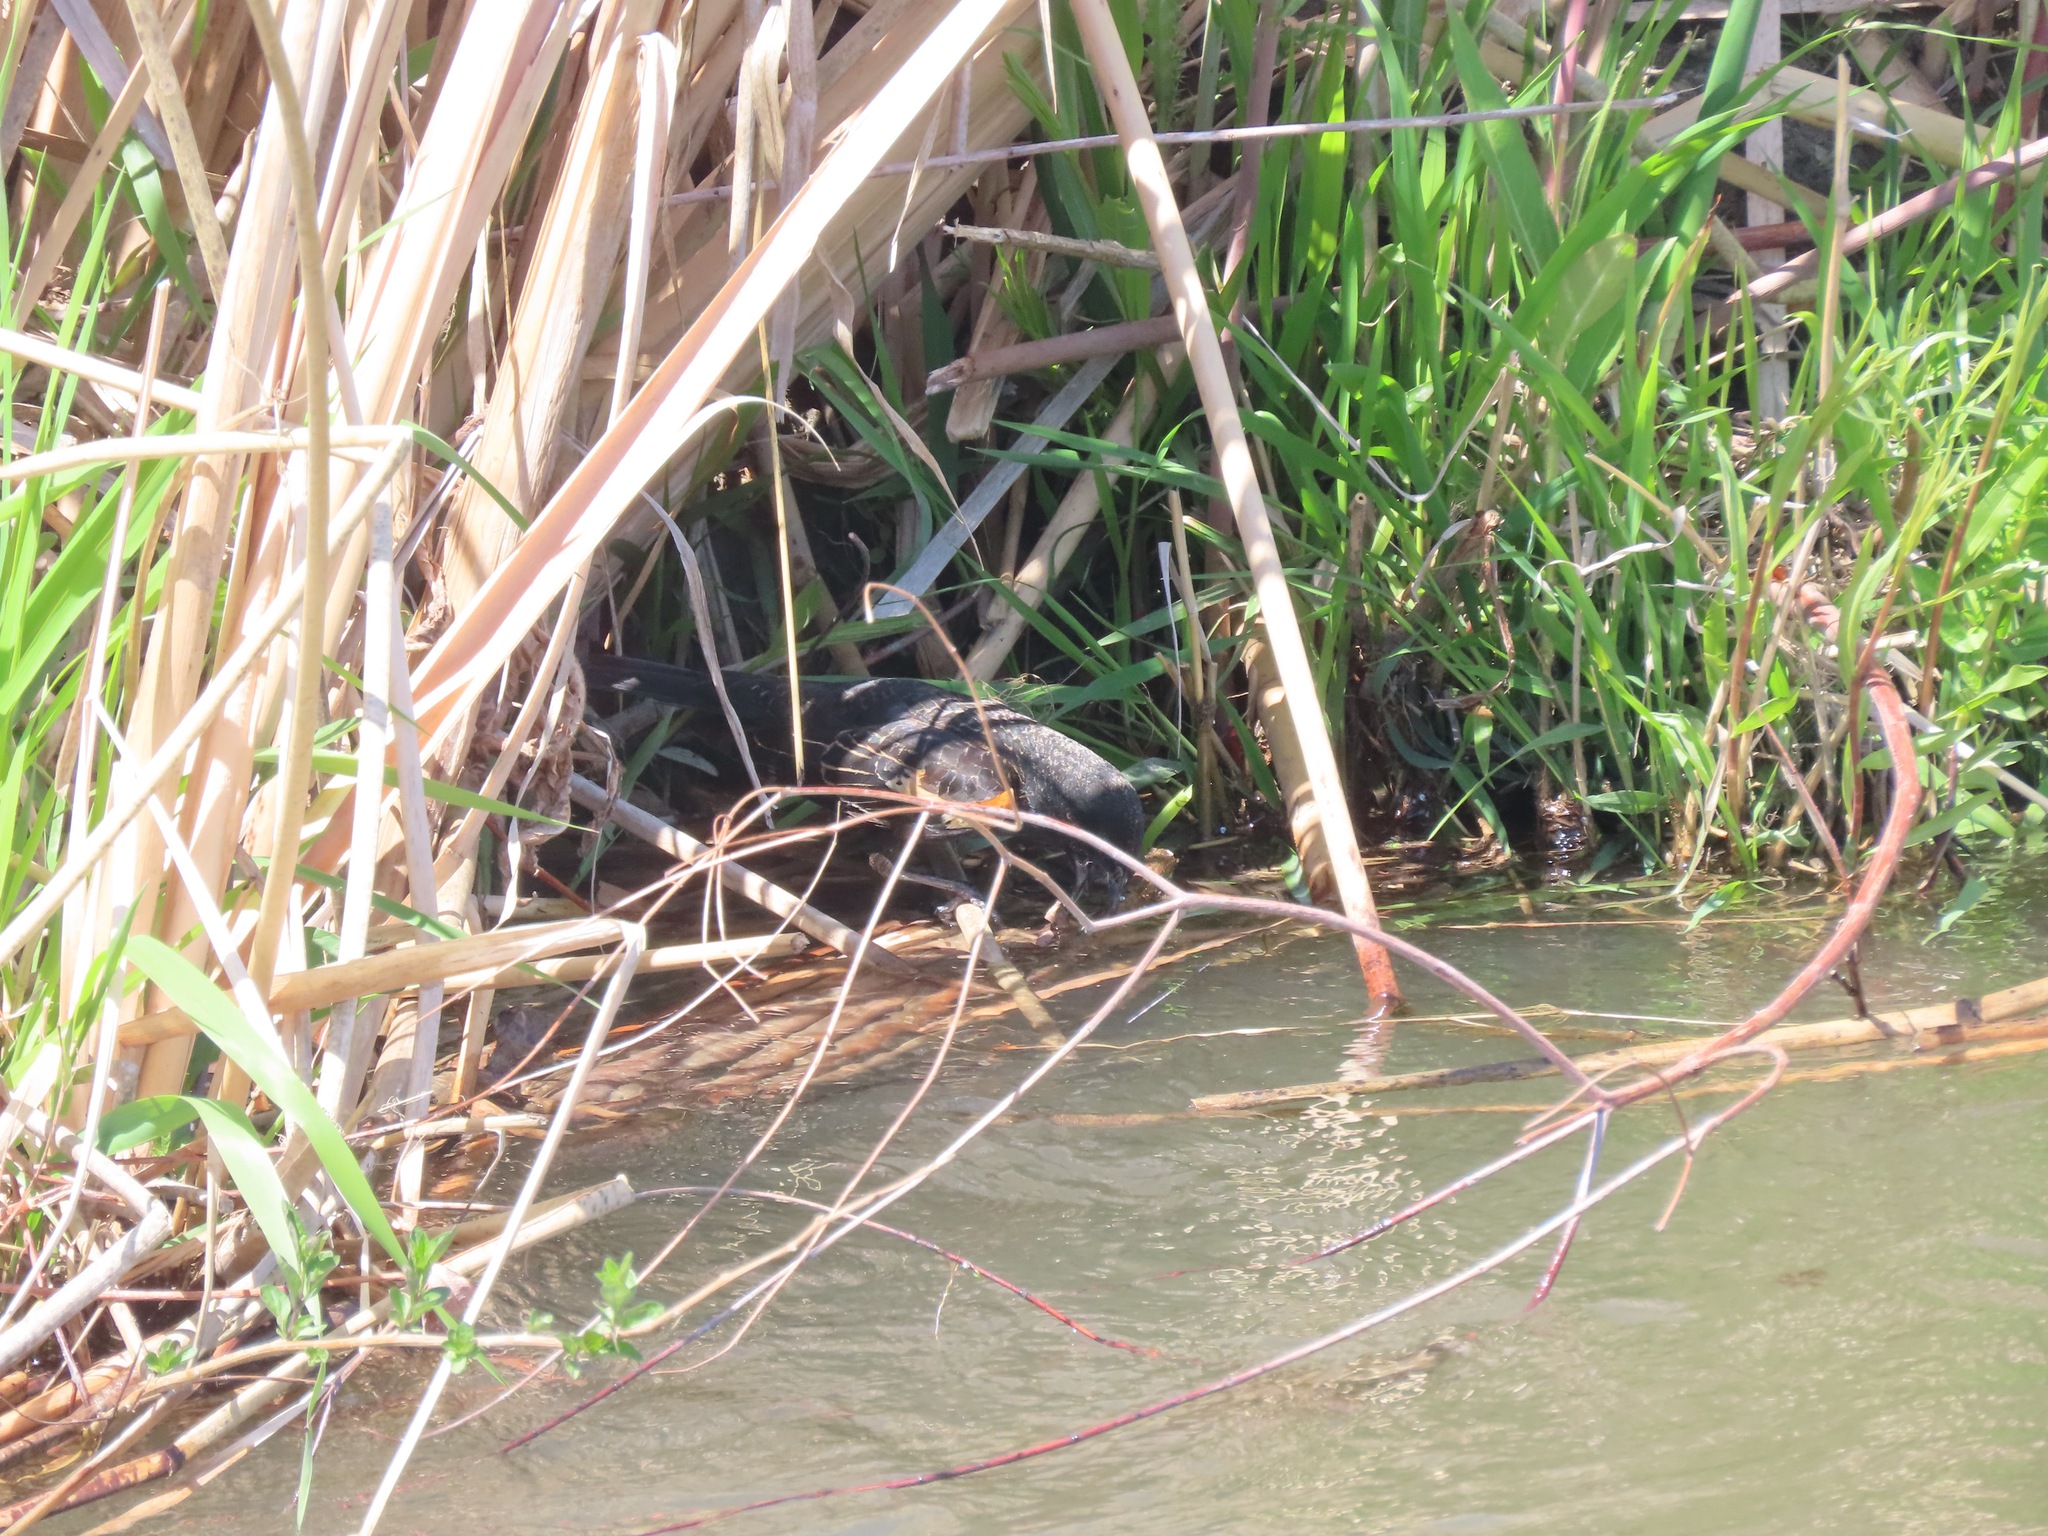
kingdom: Animalia
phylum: Chordata
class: Aves
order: Passeriformes
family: Icteridae
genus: Agelaius
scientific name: Agelaius phoeniceus
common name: Red-winged blackbird
